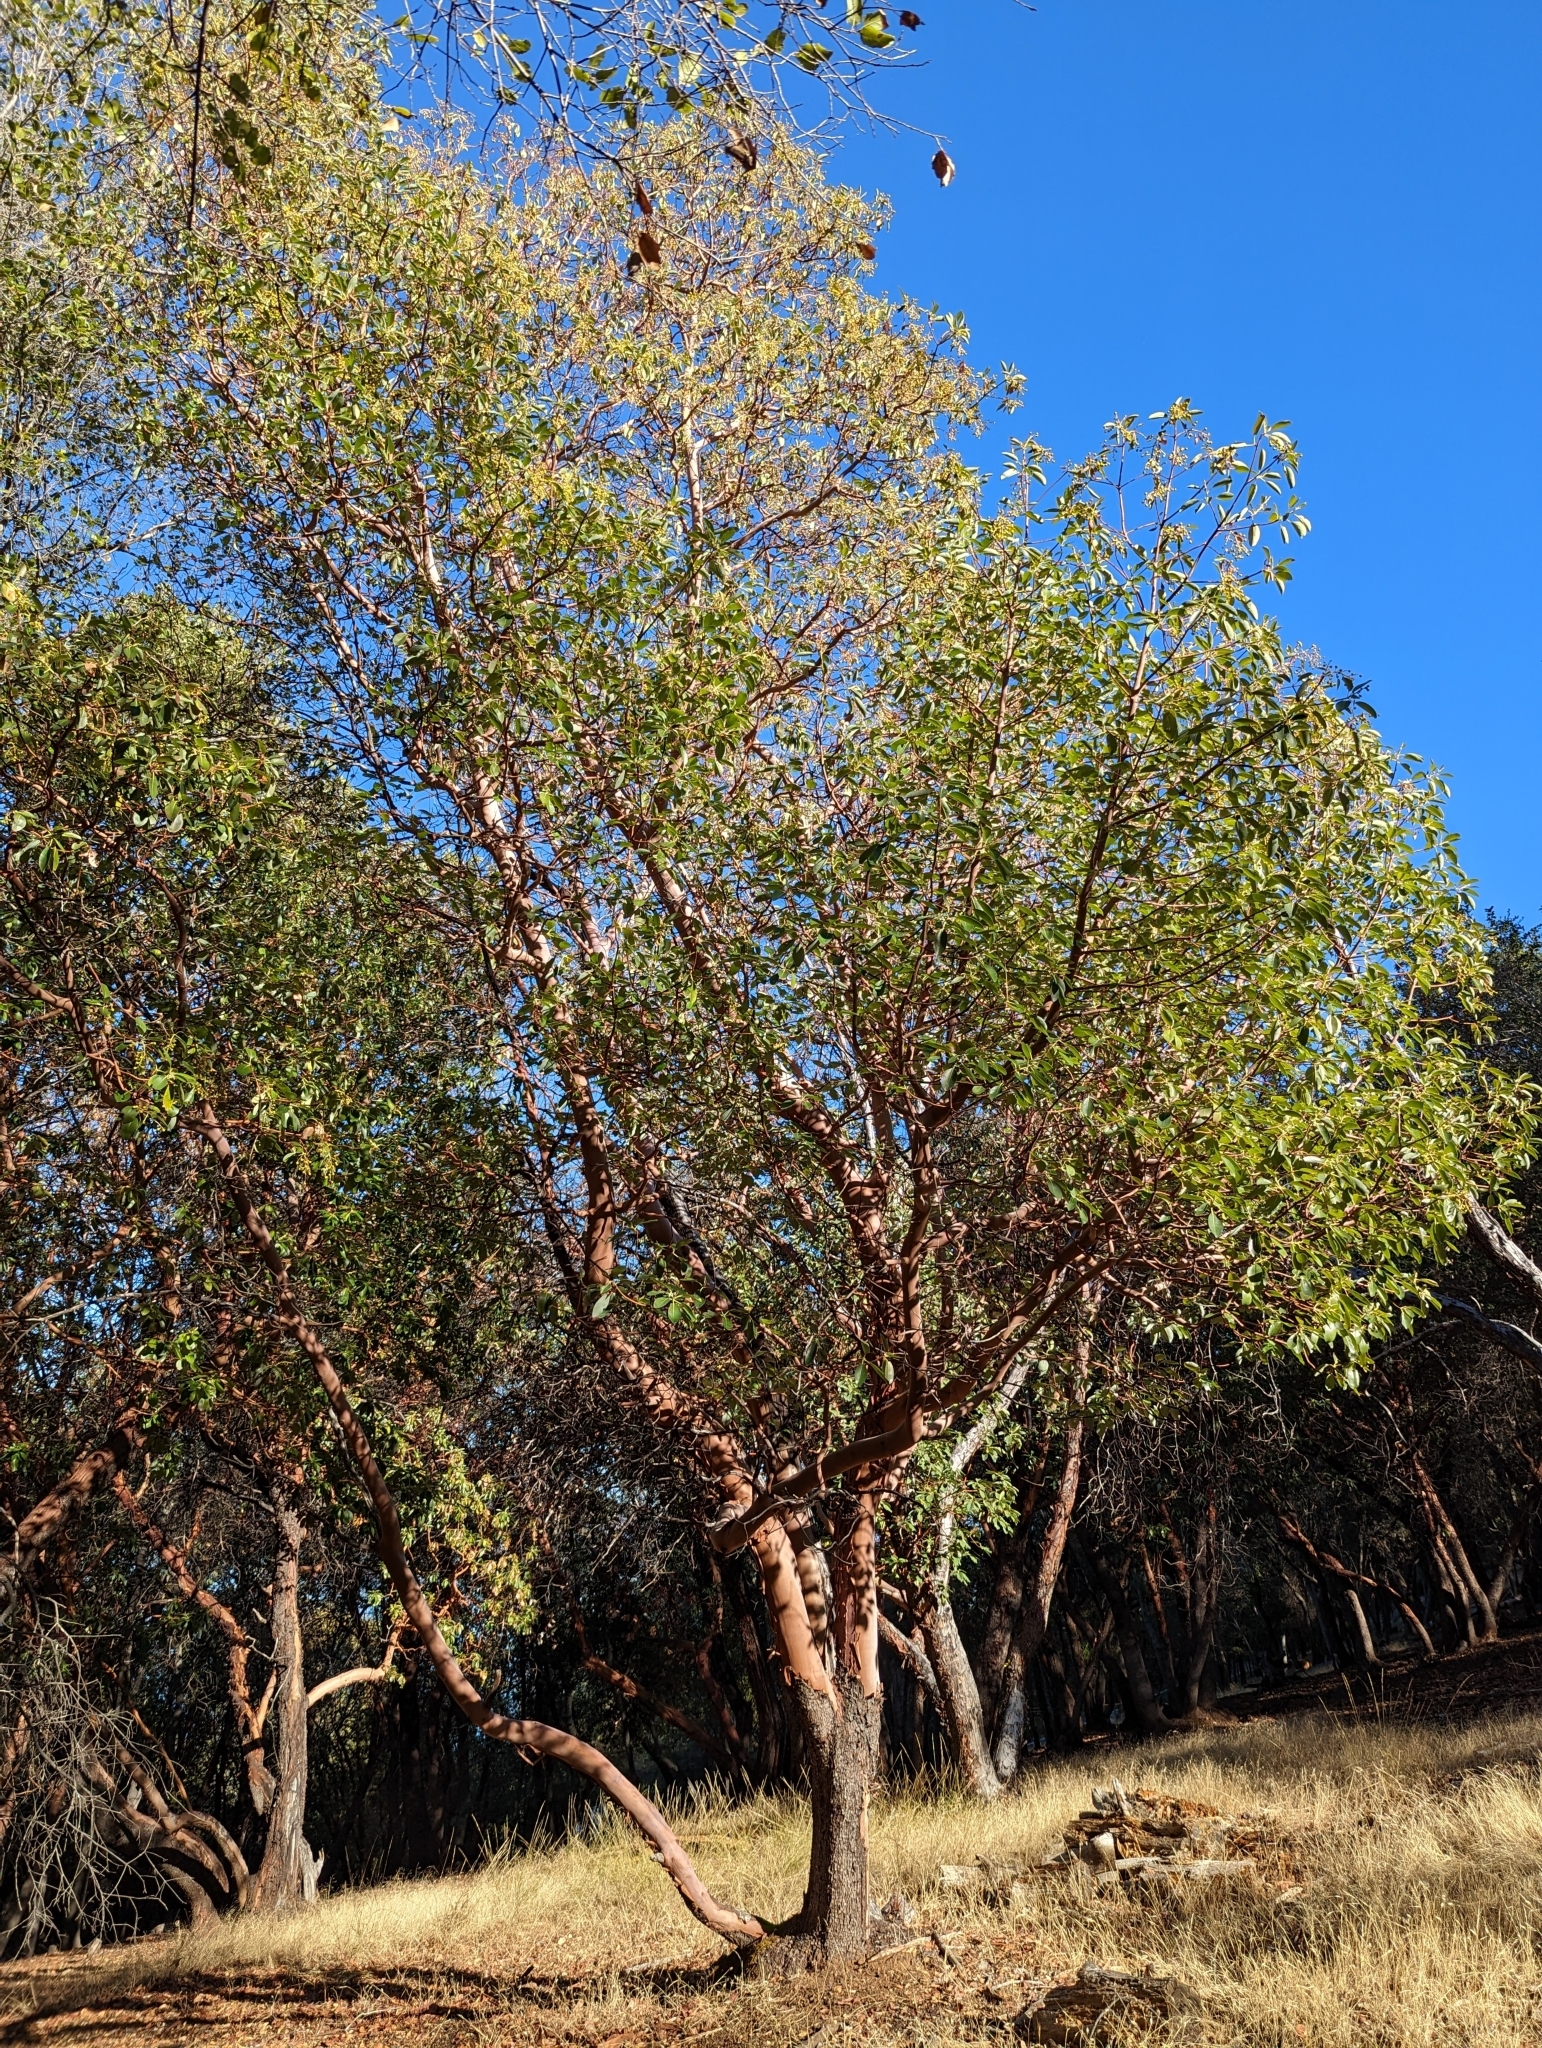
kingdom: Plantae
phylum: Tracheophyta
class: Magnoliopsida
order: Ericales
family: Ericaceae
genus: Arbutus
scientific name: Arbutus menziesii
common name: Pacific madrone
